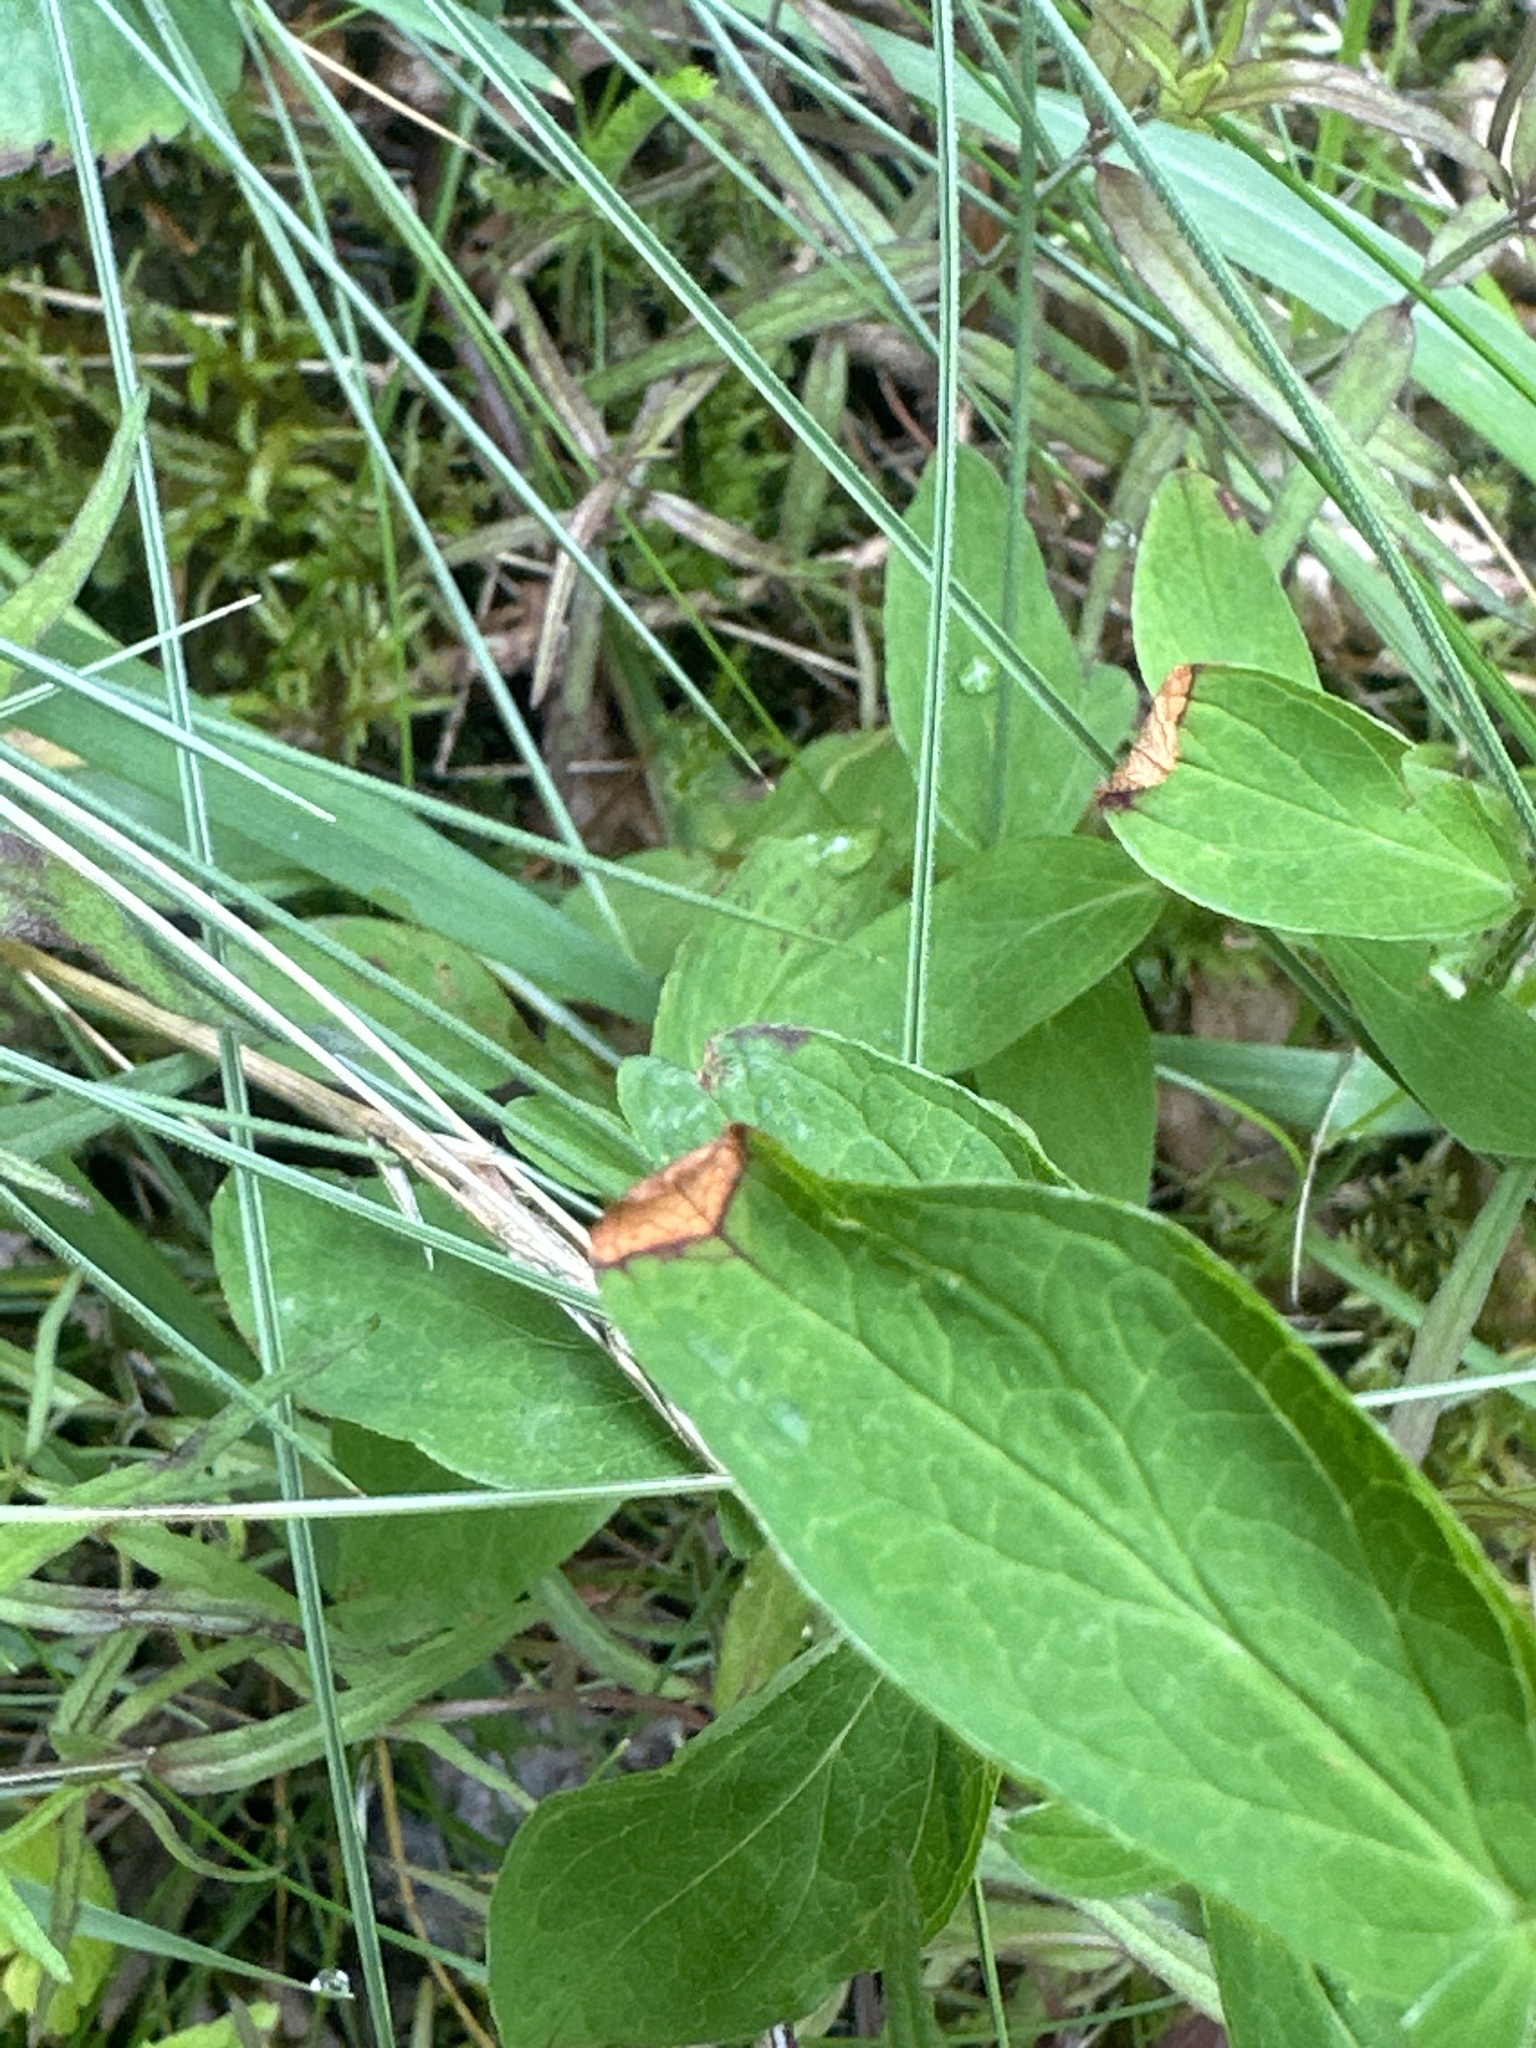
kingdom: Plantae
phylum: Tracheophyta
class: Magnoliopsida
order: Malpighiales
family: Hypericaceae
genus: Hypericum
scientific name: Hypericum maculatum
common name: Imperforate st. john's-wort
